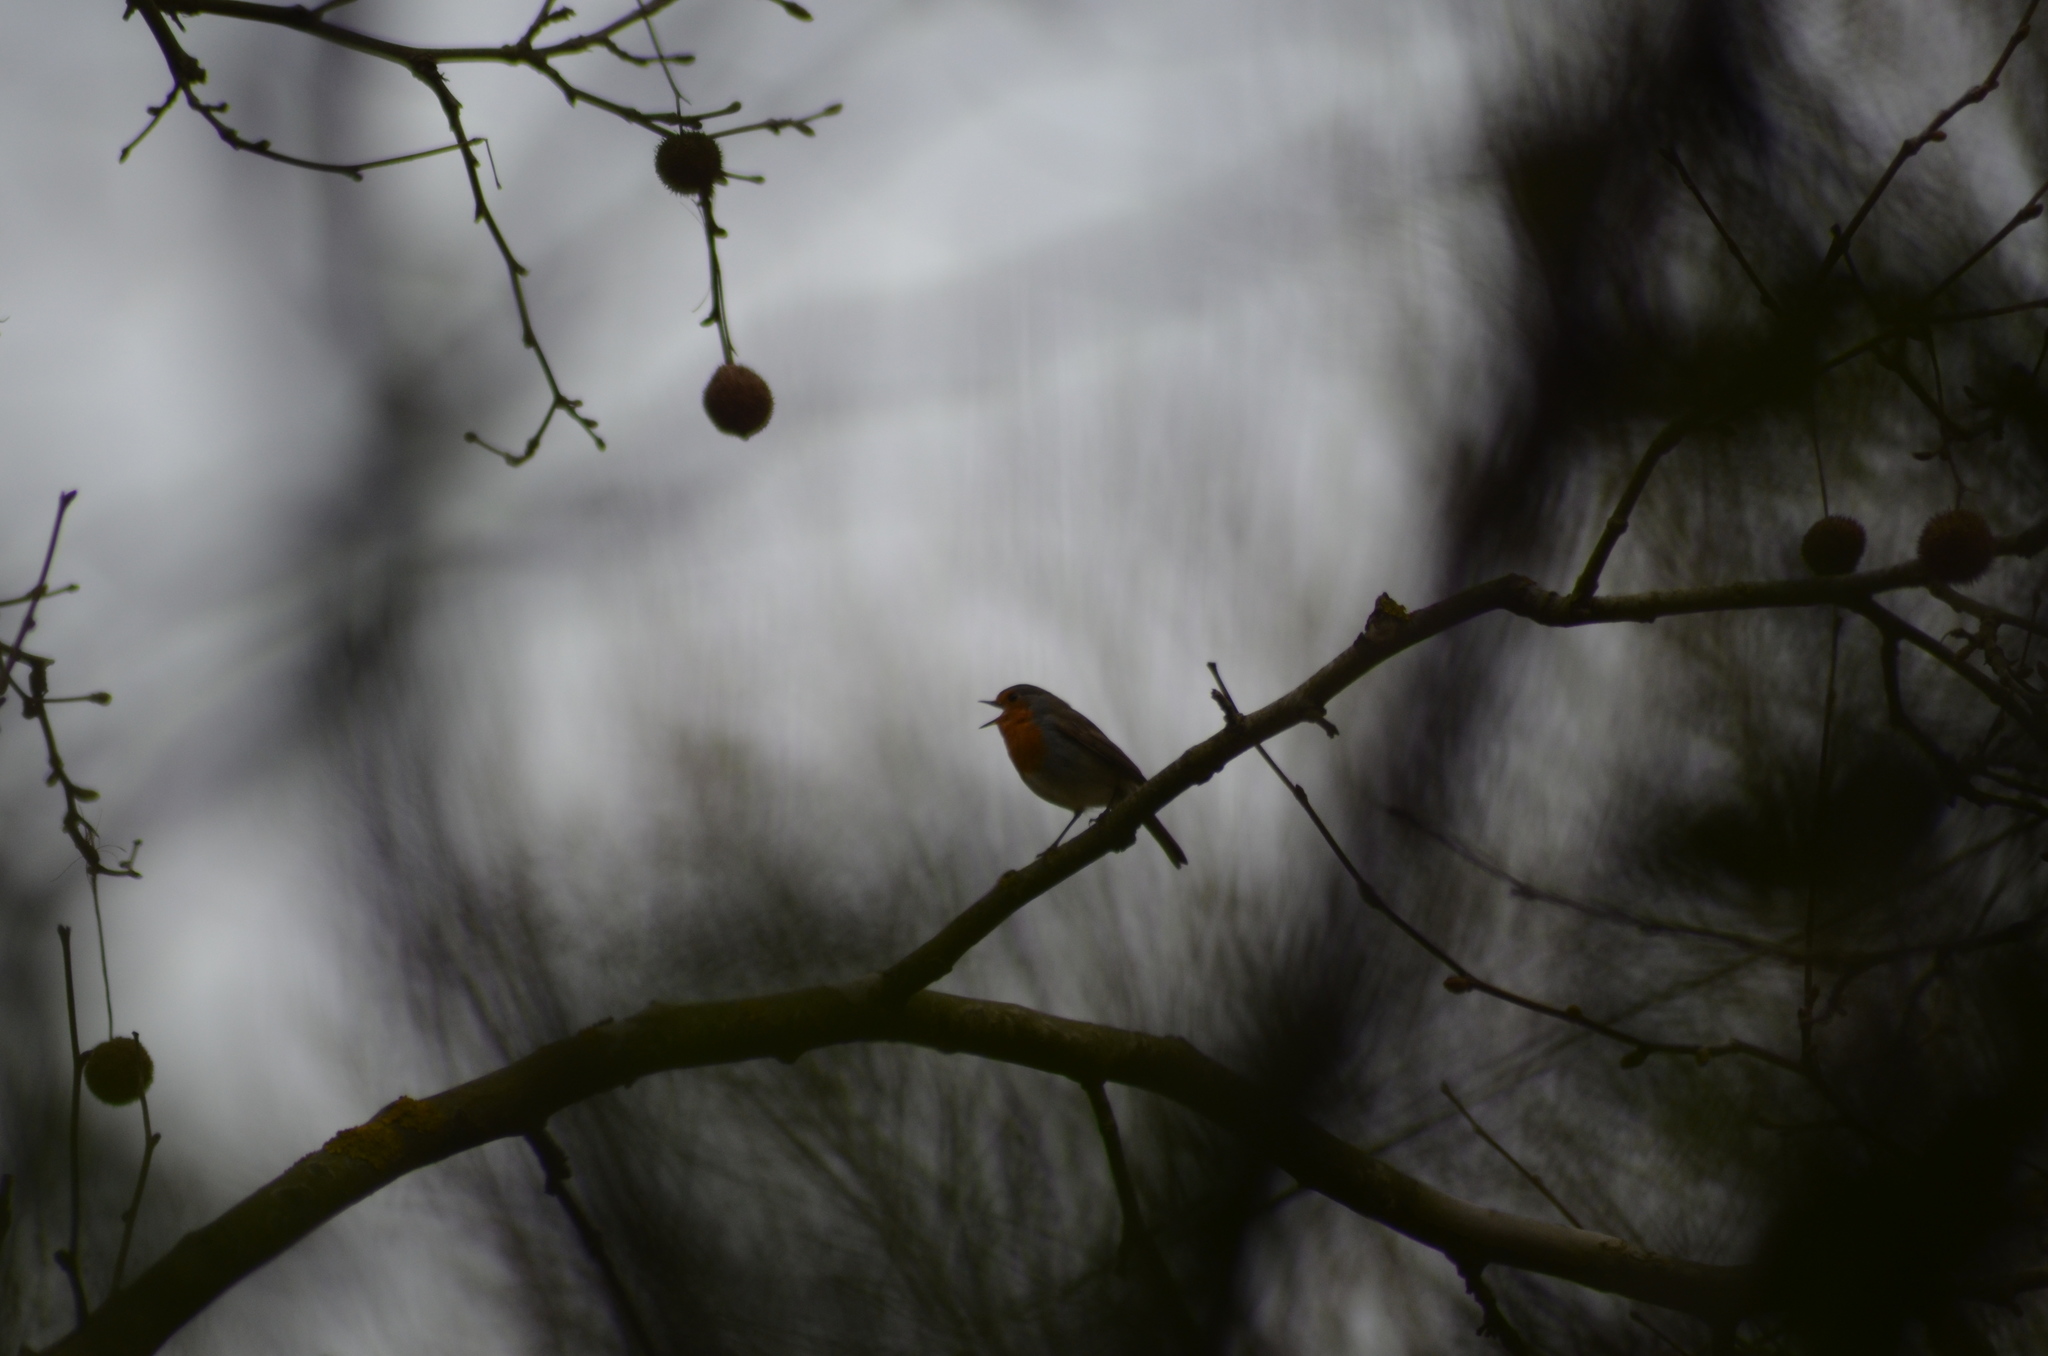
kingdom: Animalia
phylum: Chordata
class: Aves
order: Passeriformes
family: Muscicapidae
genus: Erithacus
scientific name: Erithacus rubecula
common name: European robin
